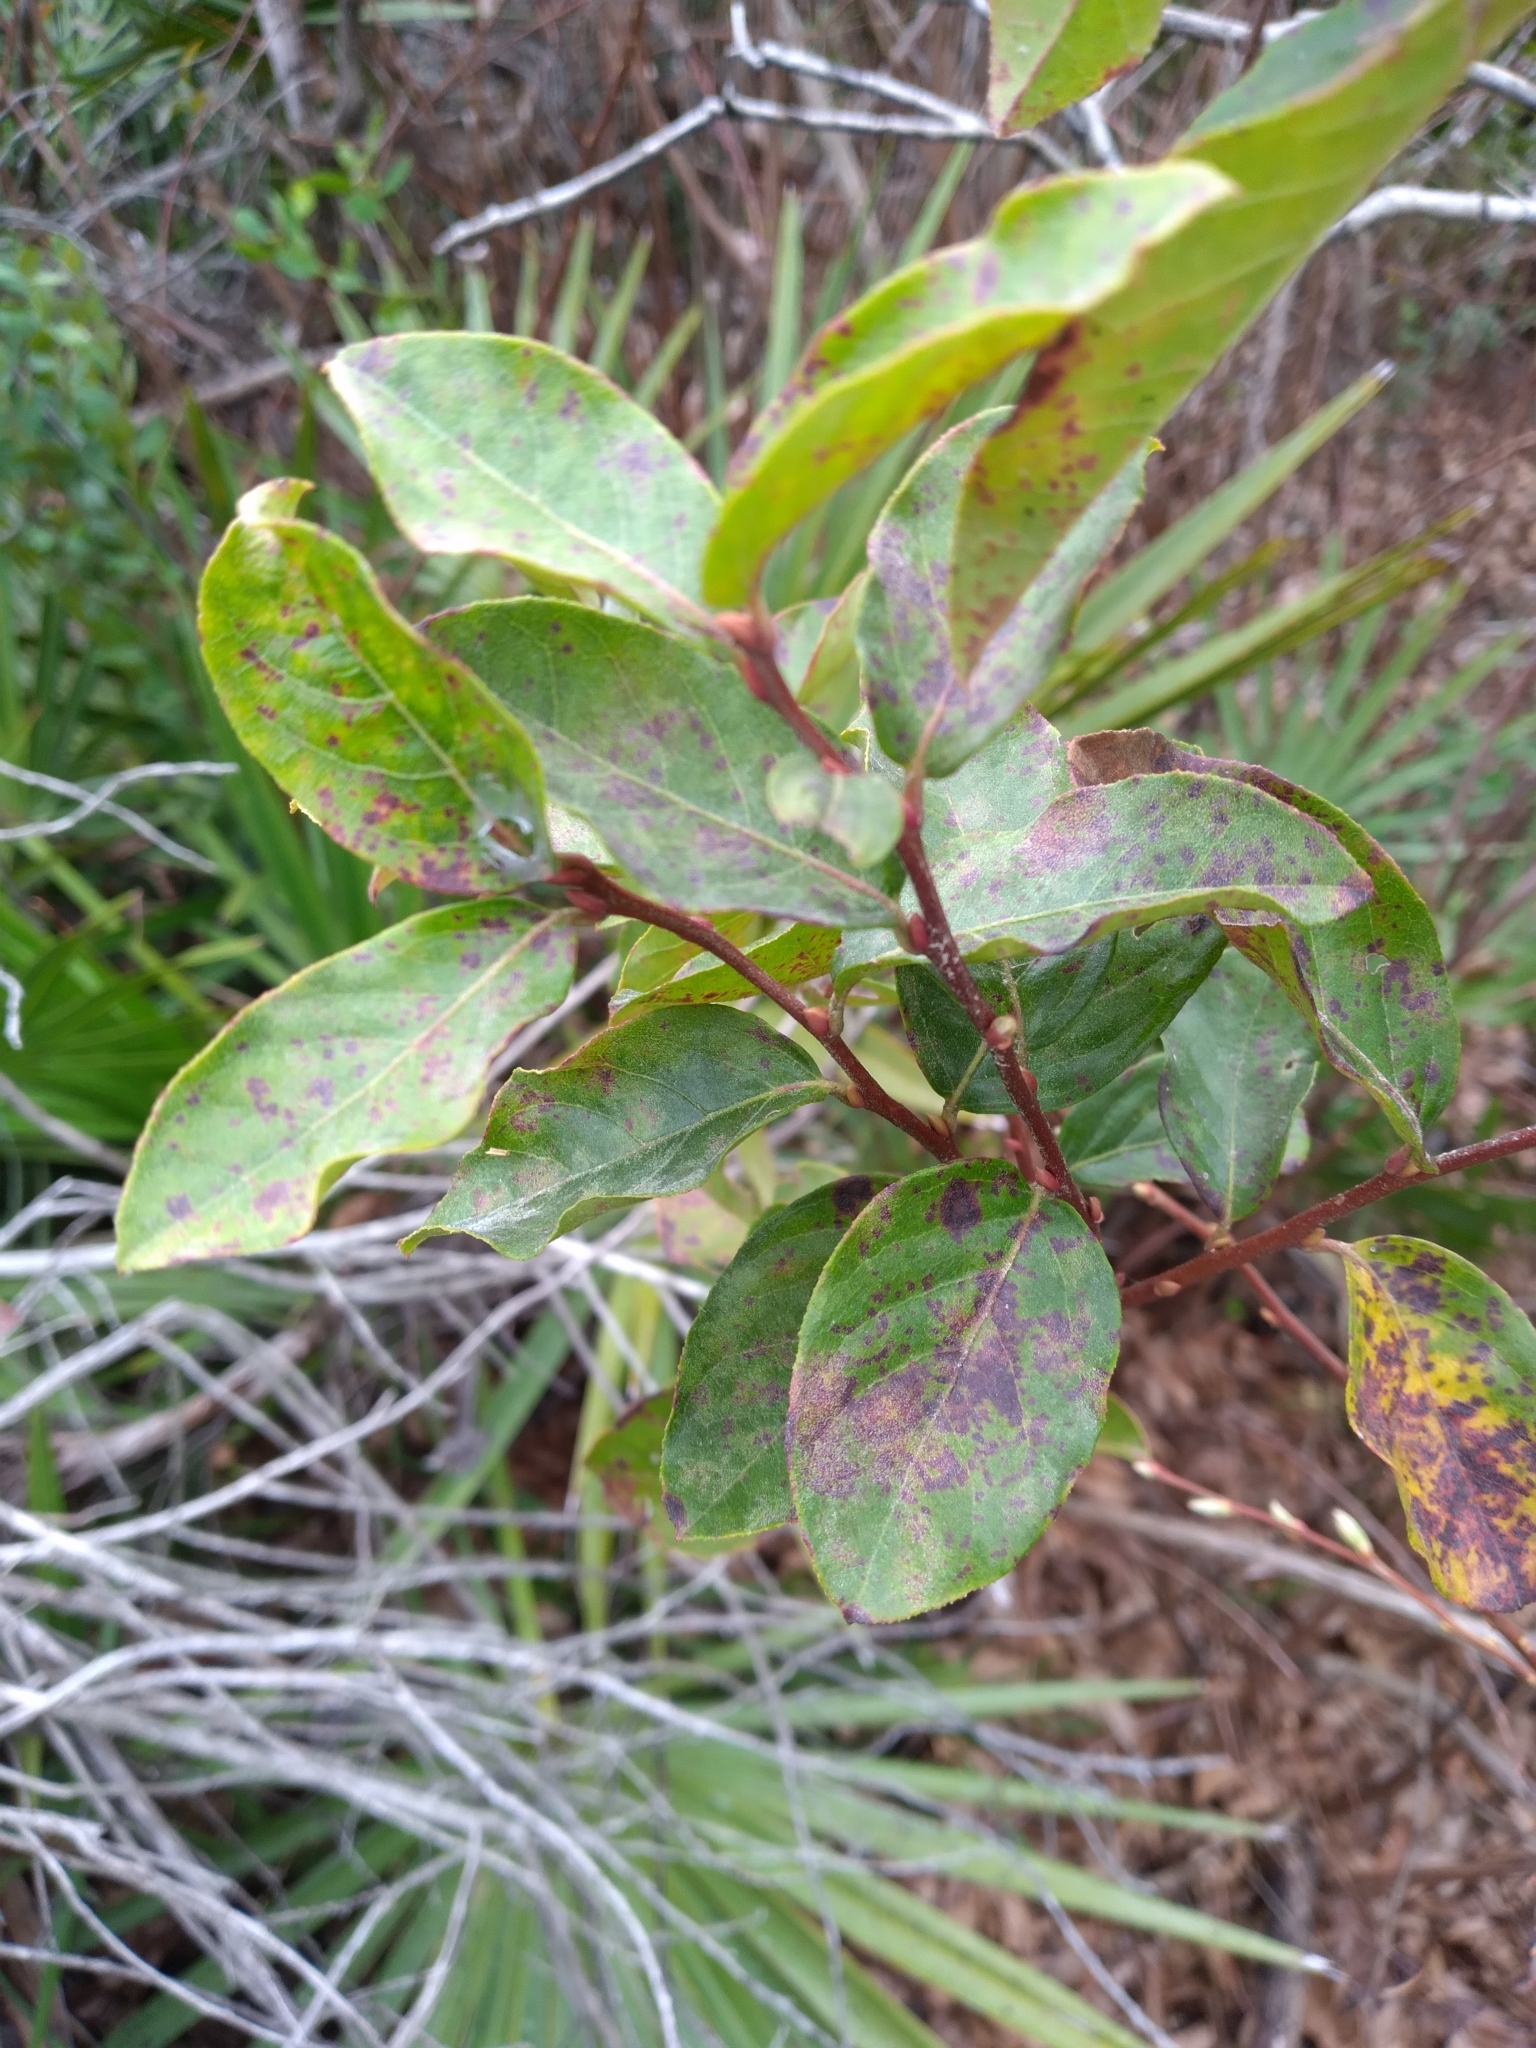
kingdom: Plantae
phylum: Tracheophyta
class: Magnoliopsida
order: Ericales
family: Ericaceae
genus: Lyonia
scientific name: Lyonia ligustrina
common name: Maleberry
